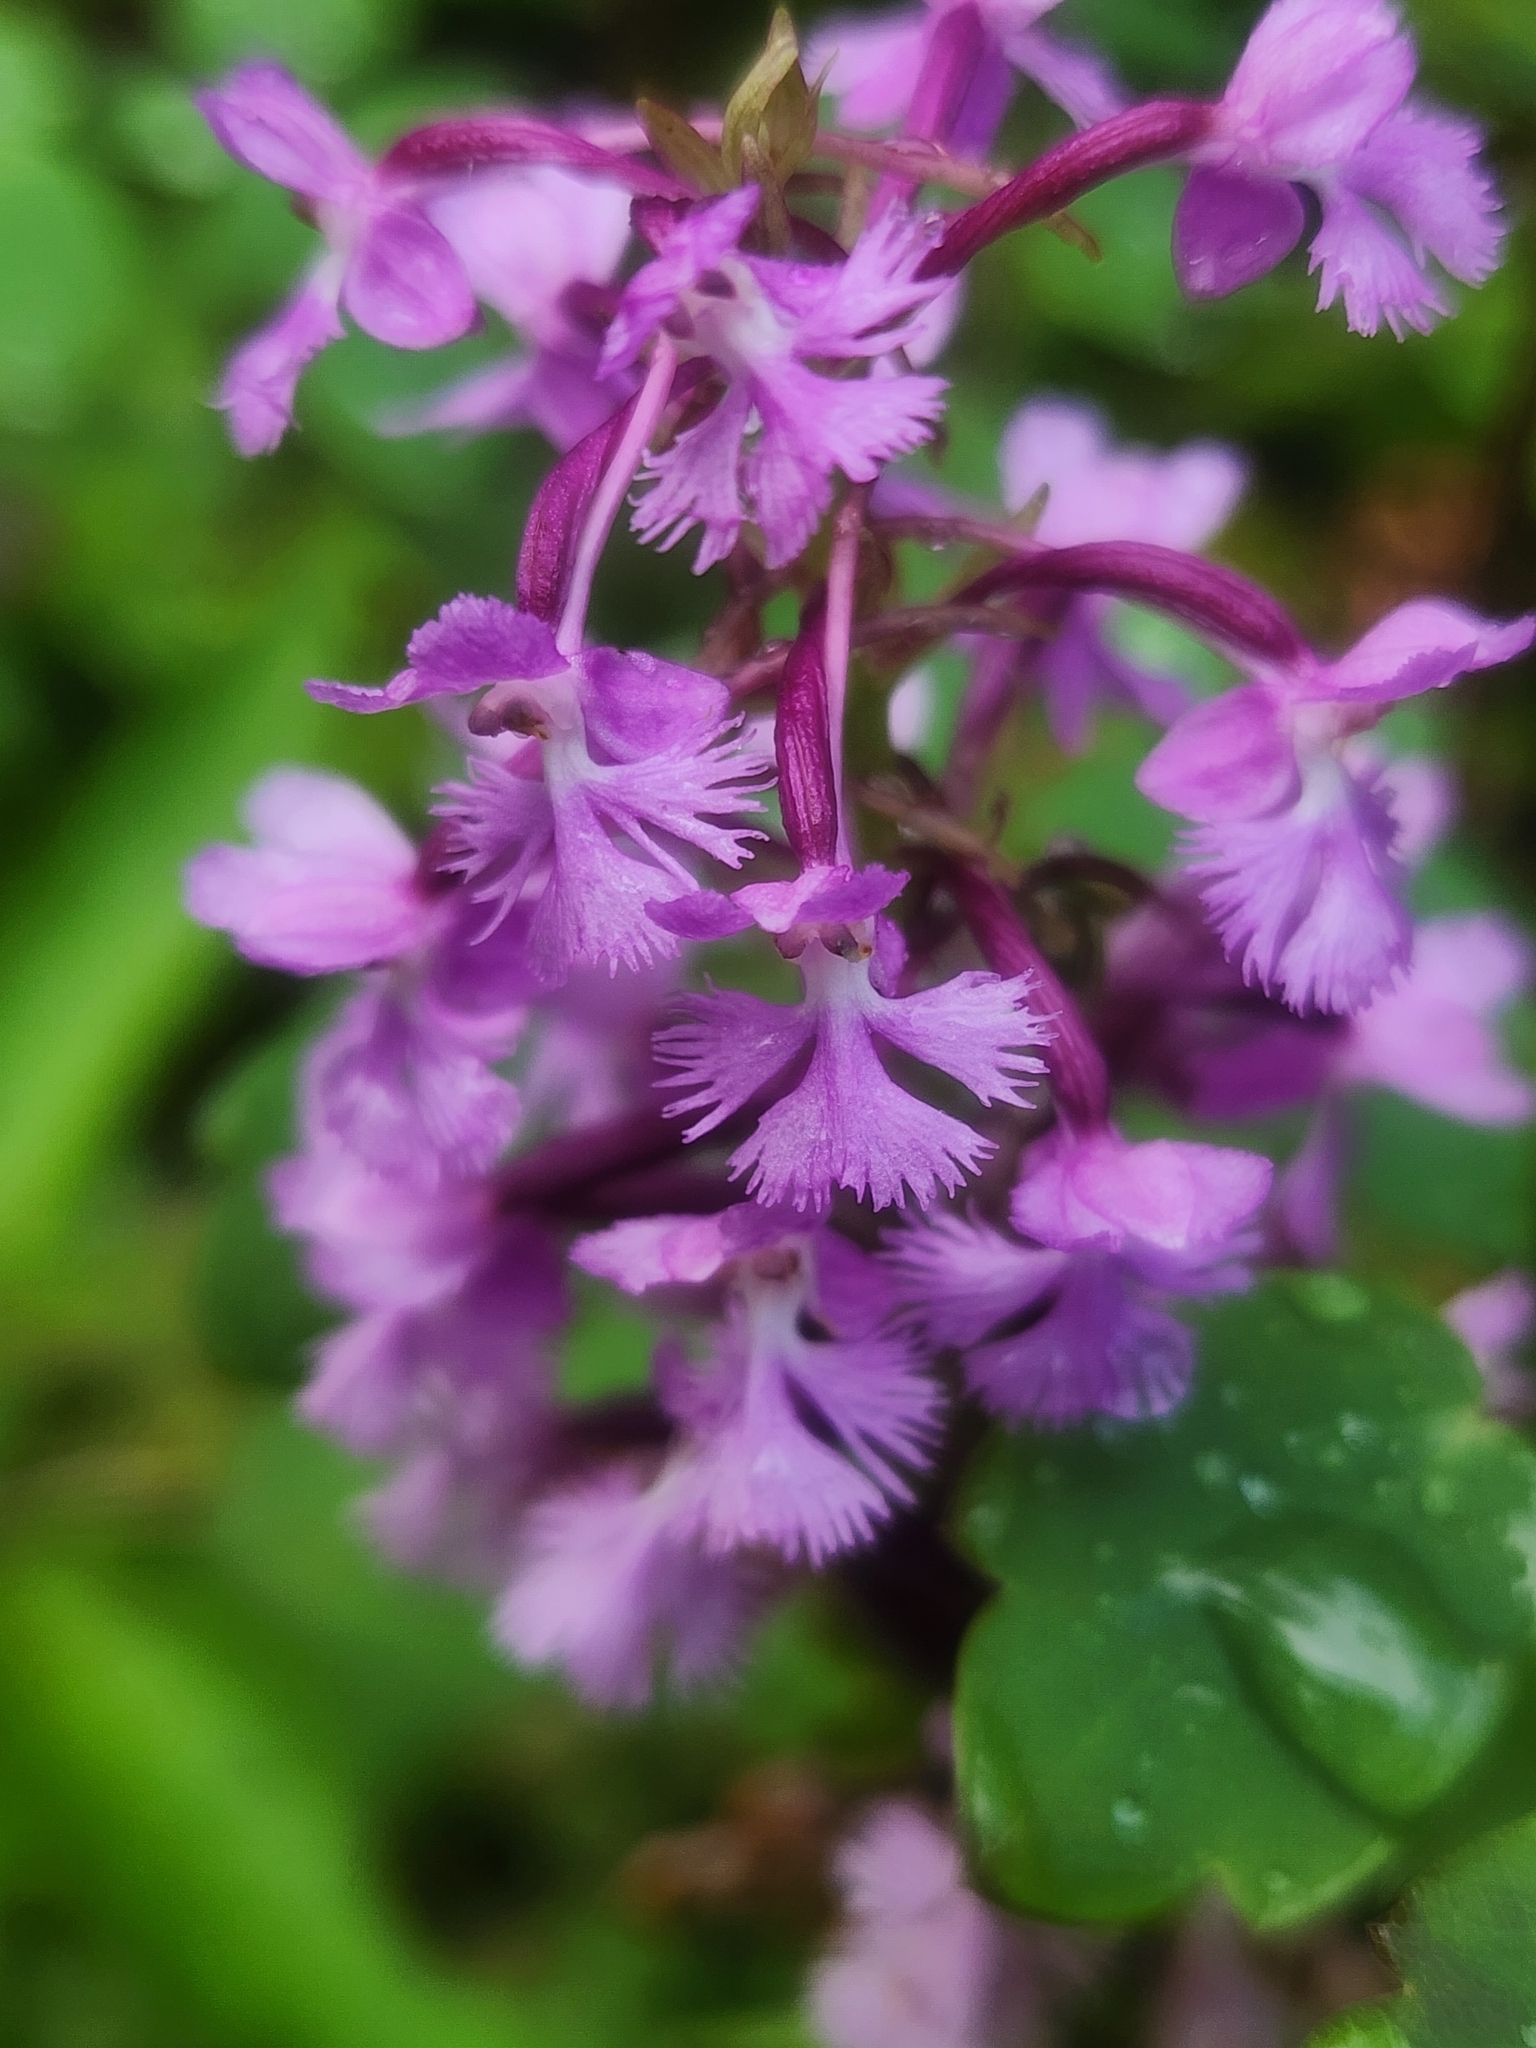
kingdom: Plantae
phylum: Tracheophyta
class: Liliopsida
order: Asparagales
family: Orchidaceae
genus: Platanthera
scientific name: Platanthera psycodes
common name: Lesser purple fringed orchid
